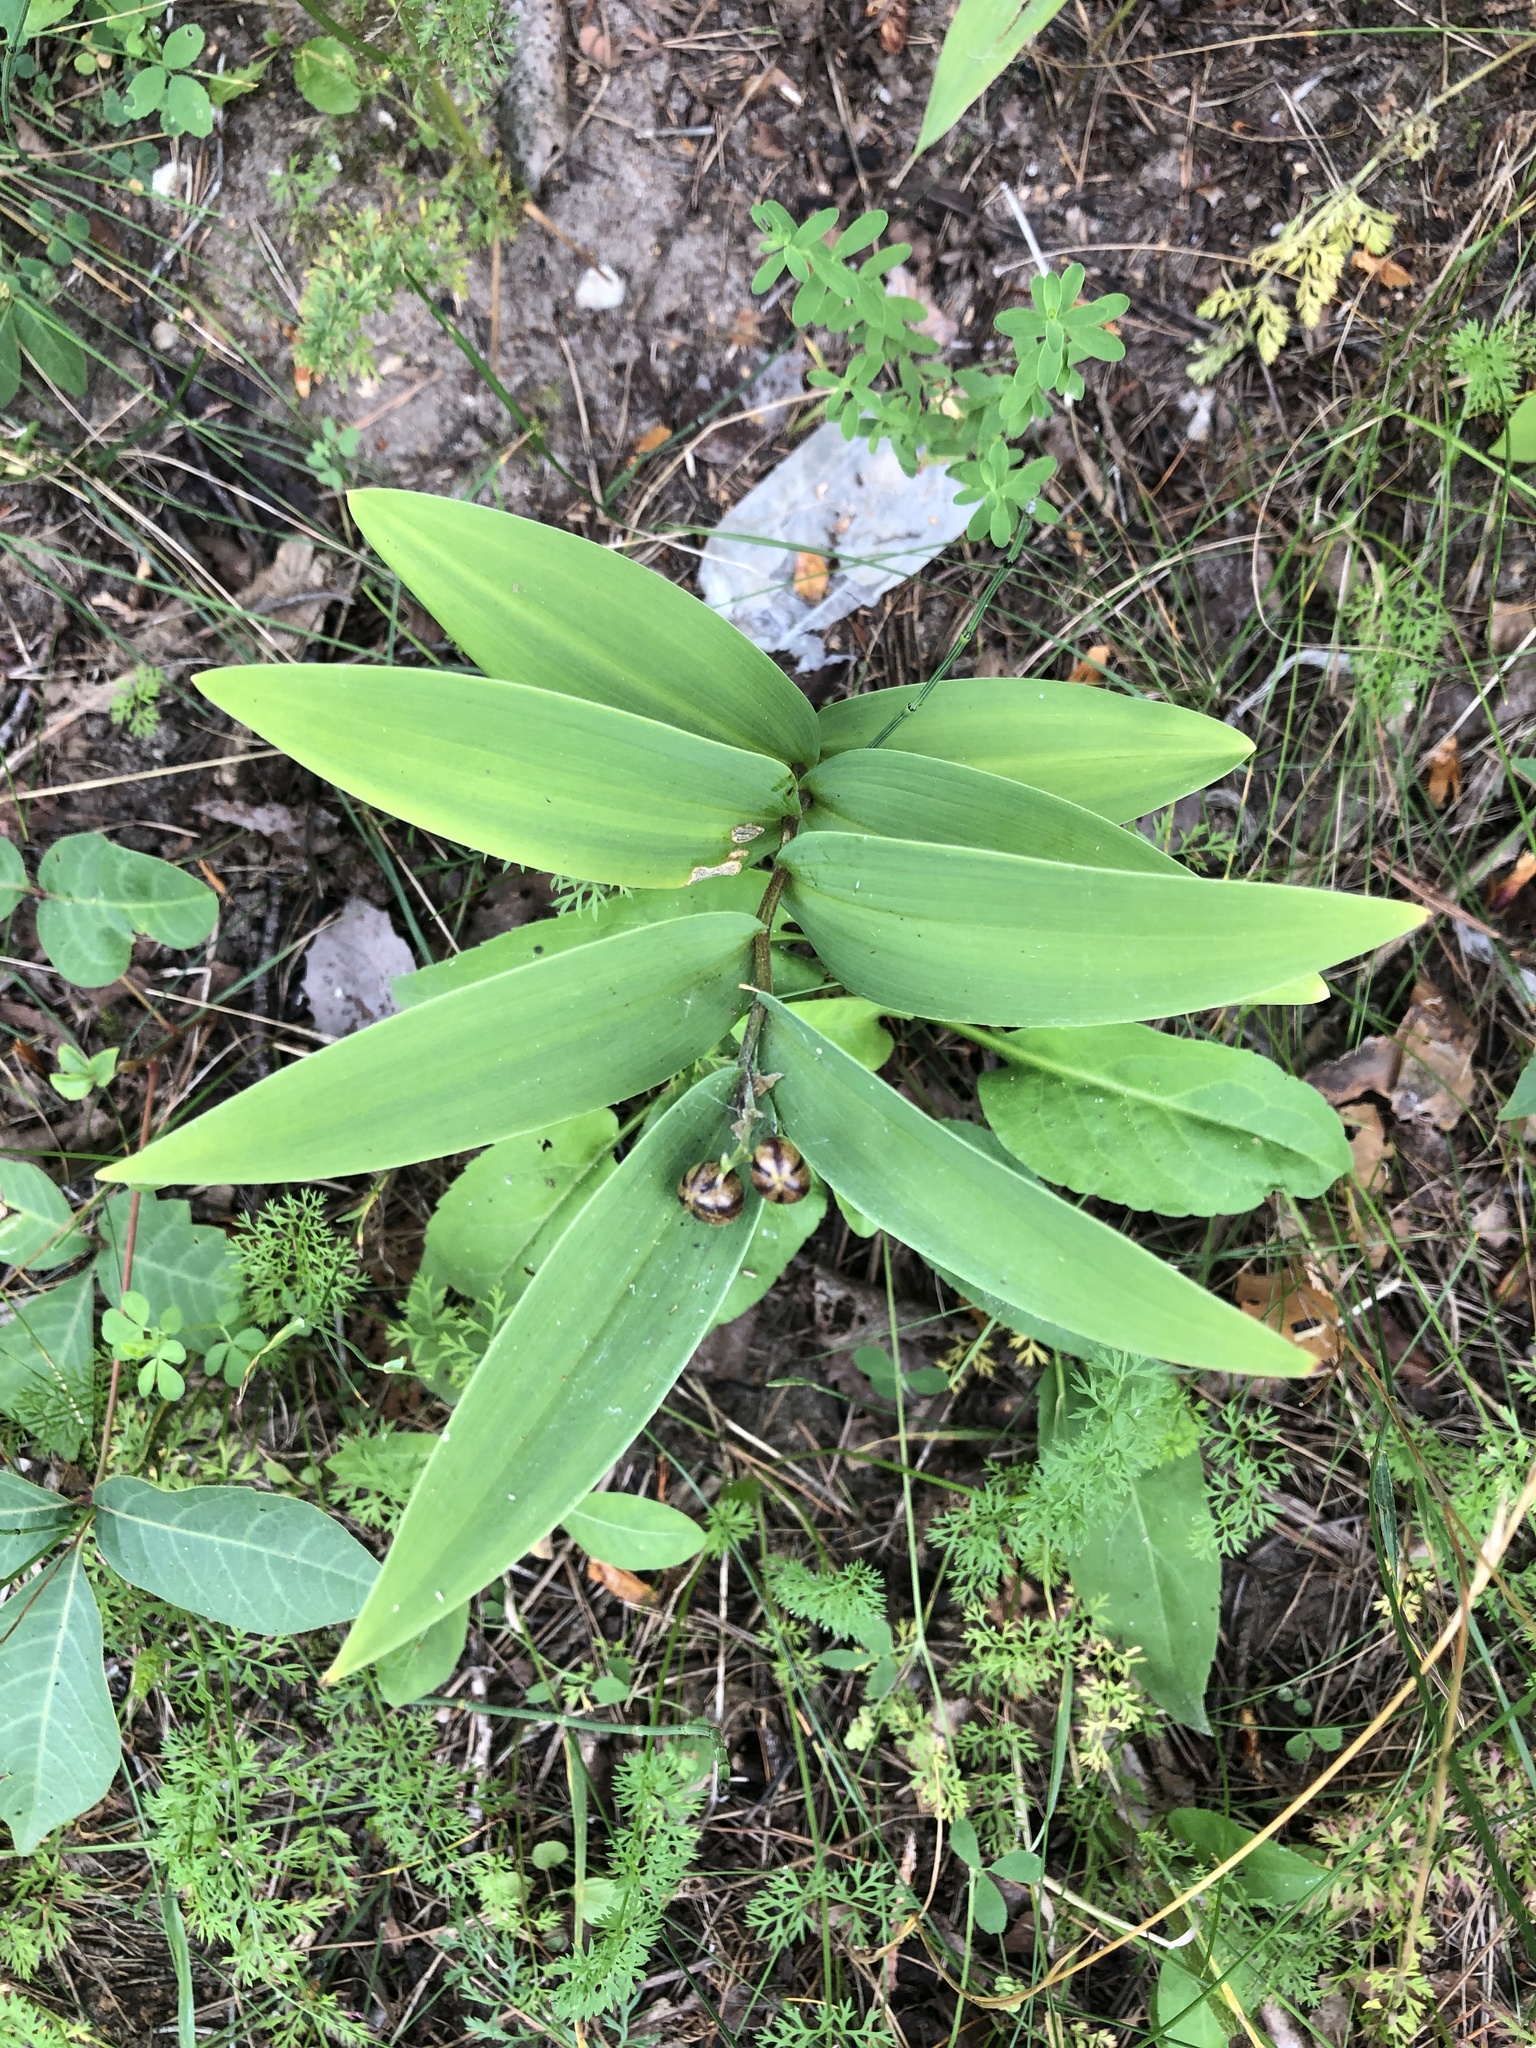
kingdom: Plantae
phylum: Tracheophyta
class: Liliopsida
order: Asparagales
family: Asparagaceae
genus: Maianthemum
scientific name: Maianthemum stellatum
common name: Little false solomon's seal
